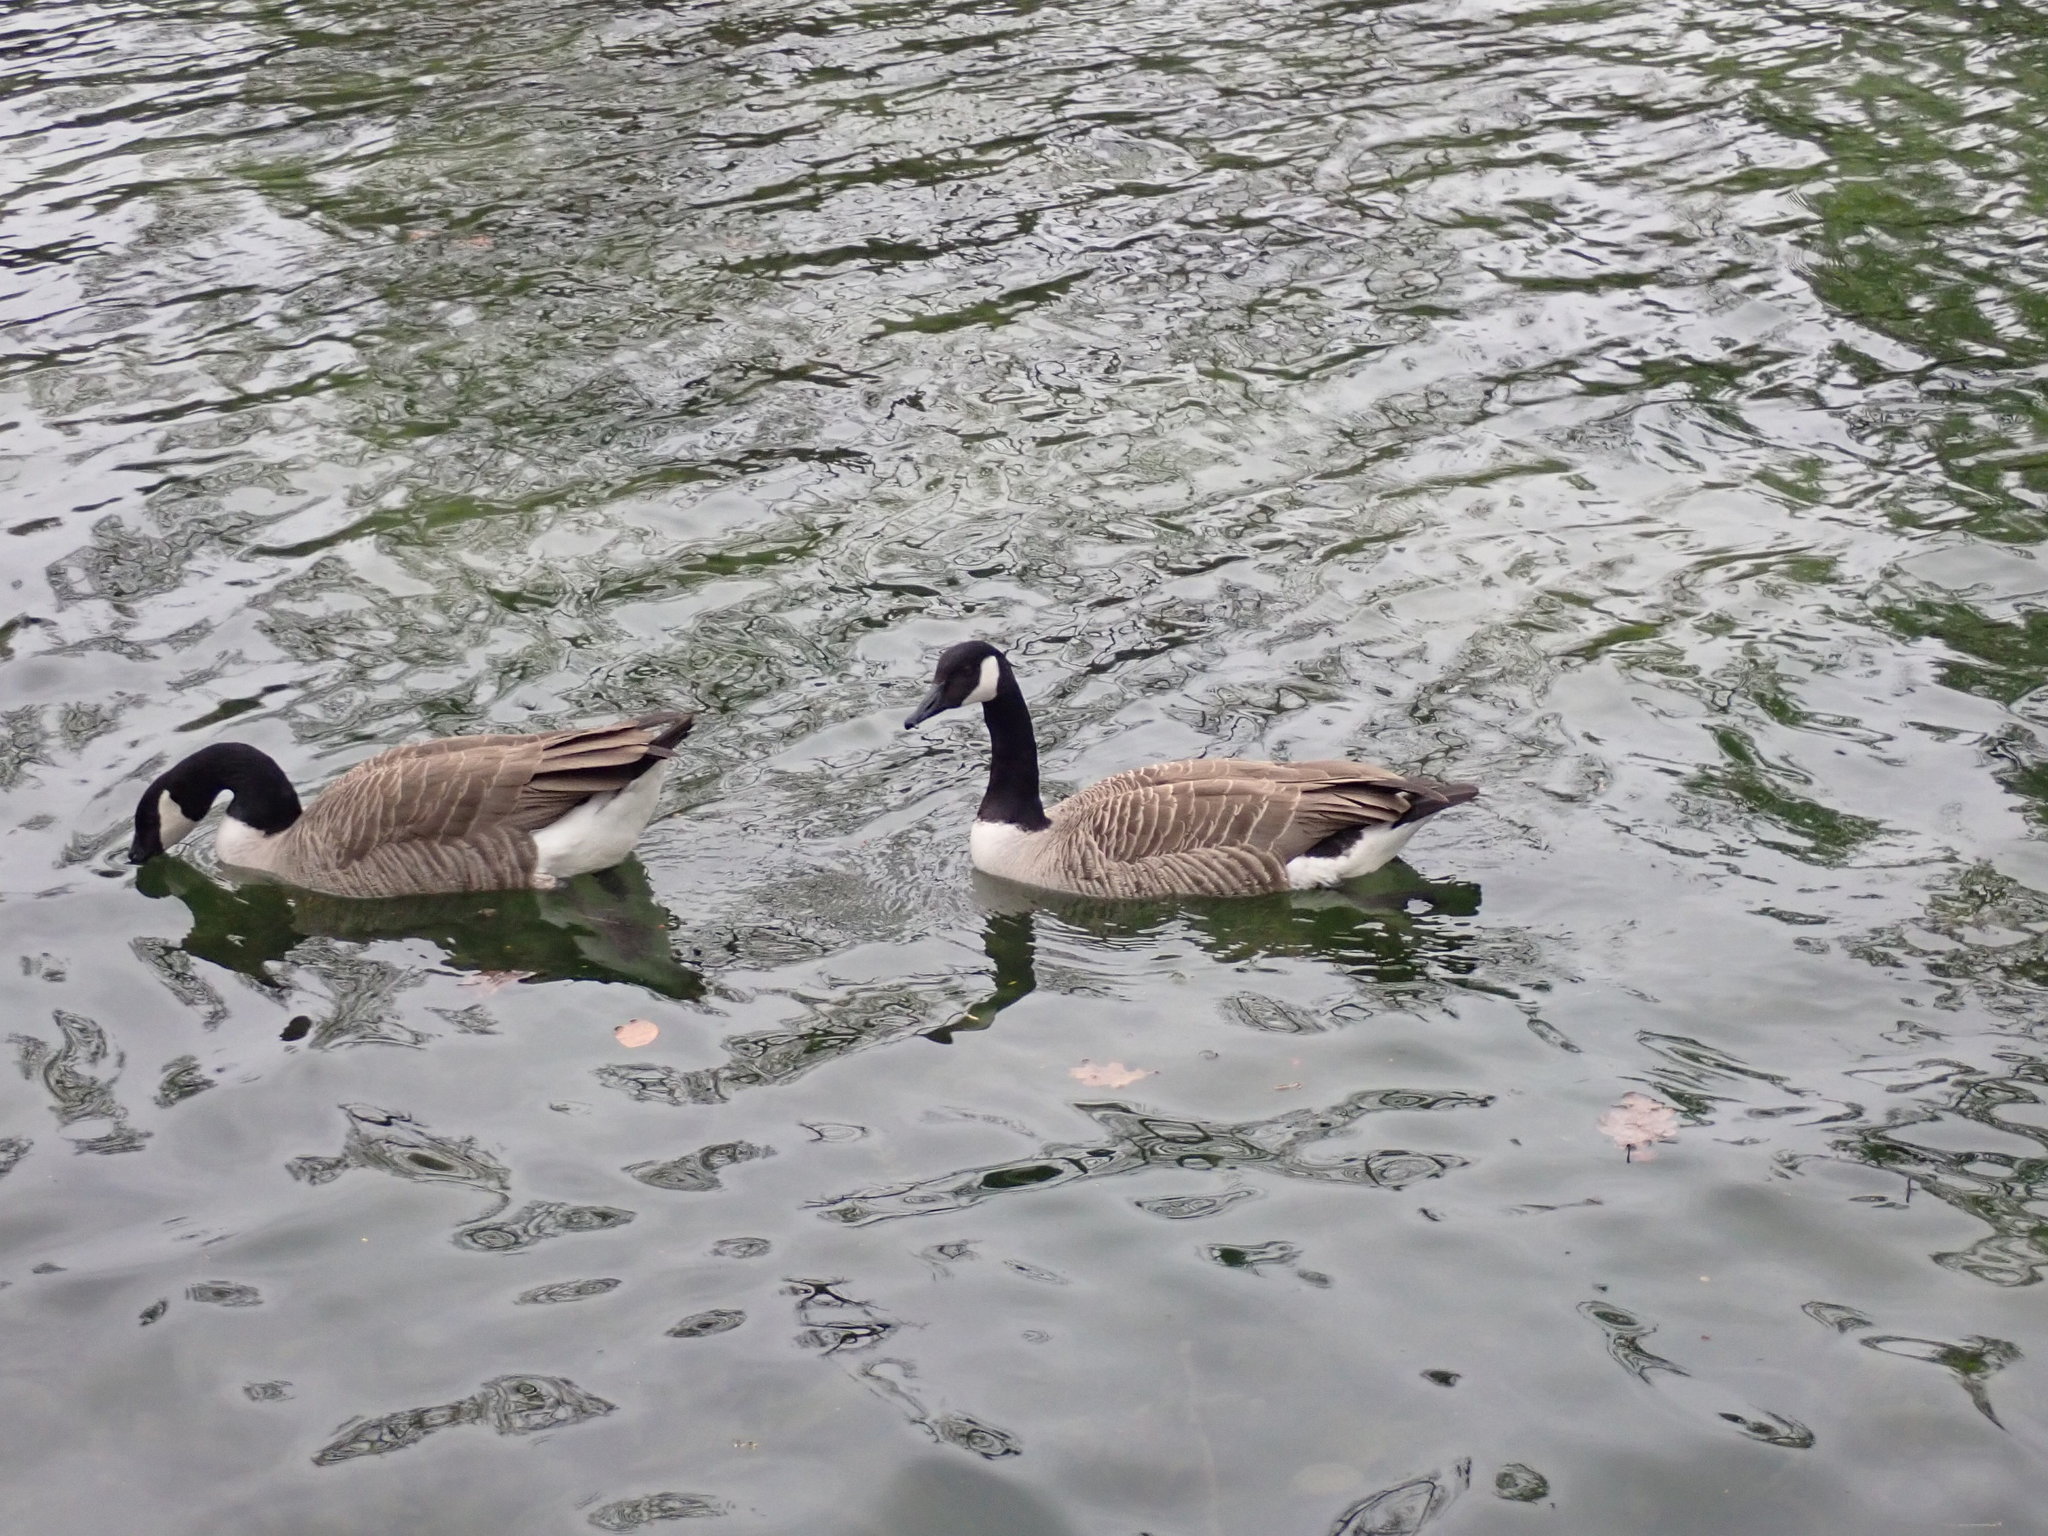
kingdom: Animalia
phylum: Chordata
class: Aves
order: Anseriformes
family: Anatidae
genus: Branta
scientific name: Branta canadensis
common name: Canada goose
